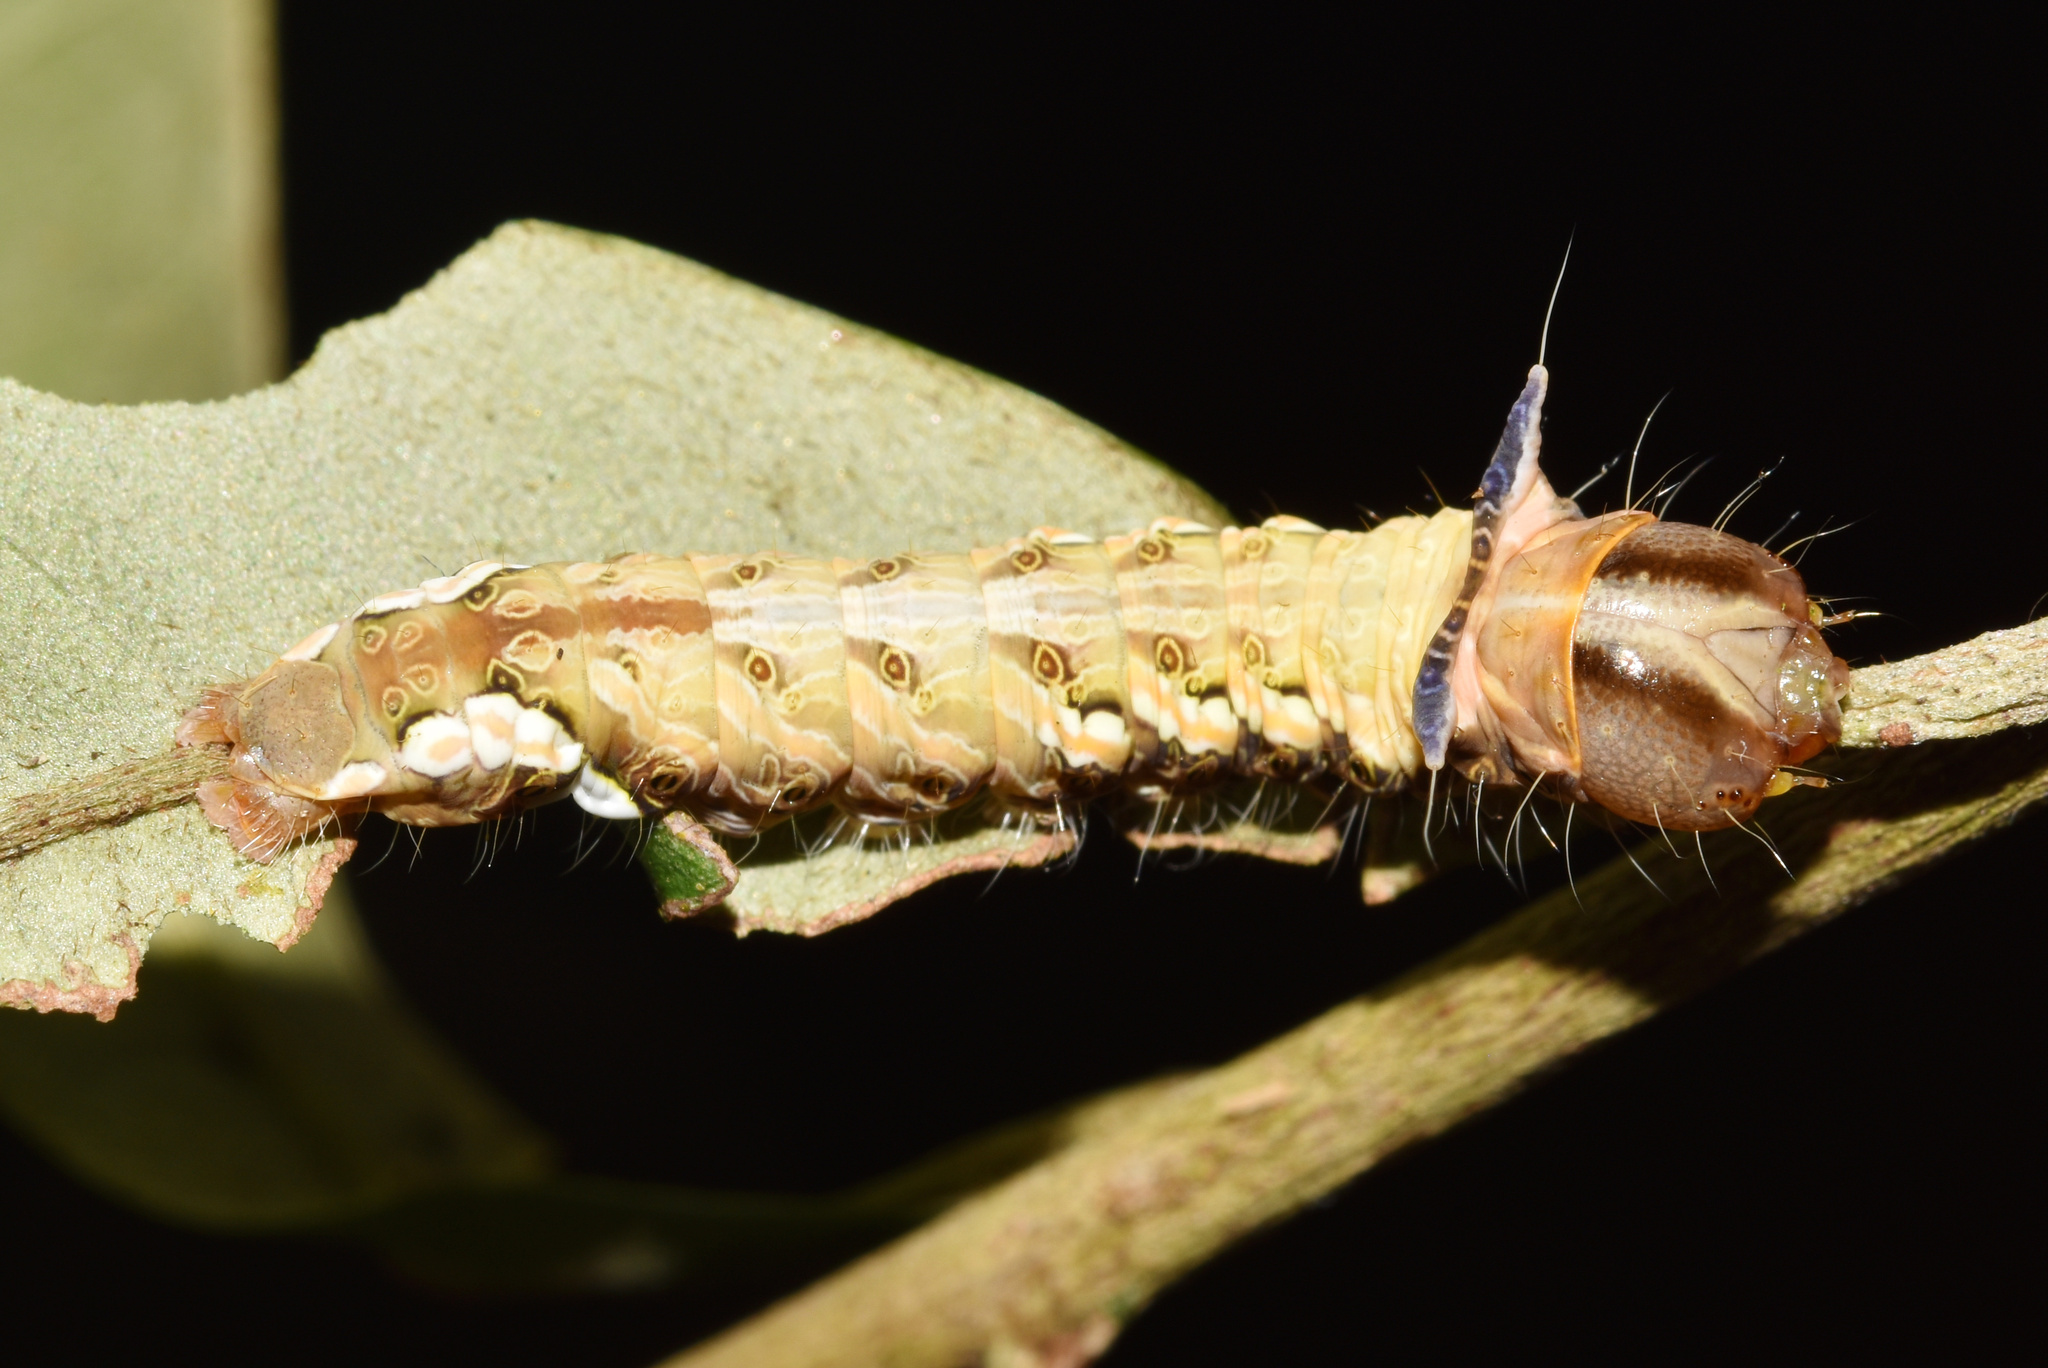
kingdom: Animalia
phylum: Arthropoda
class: Insecta
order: Lepidoptera
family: Notodontidae
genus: Desmeocraera
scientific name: Desmeocraera latex
